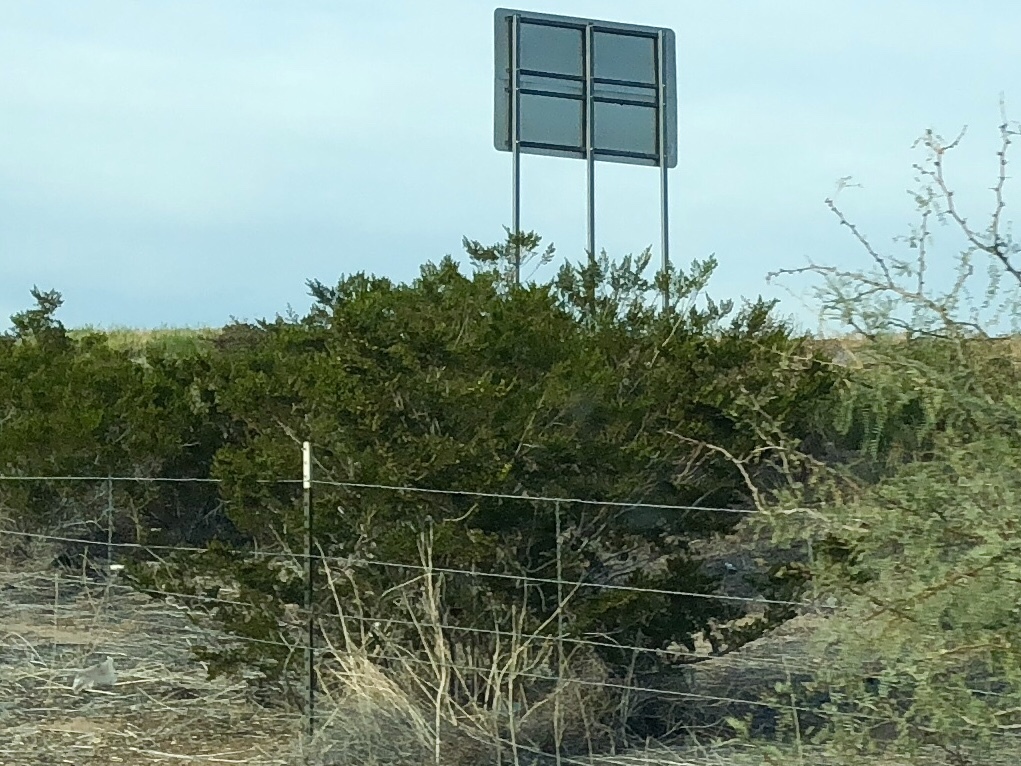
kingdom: Plantae
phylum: Tracheophyta
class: Magnoliopsida
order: Zygophyllales
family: Zygophyllaceae
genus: Larrea
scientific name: Larrea tridentata
